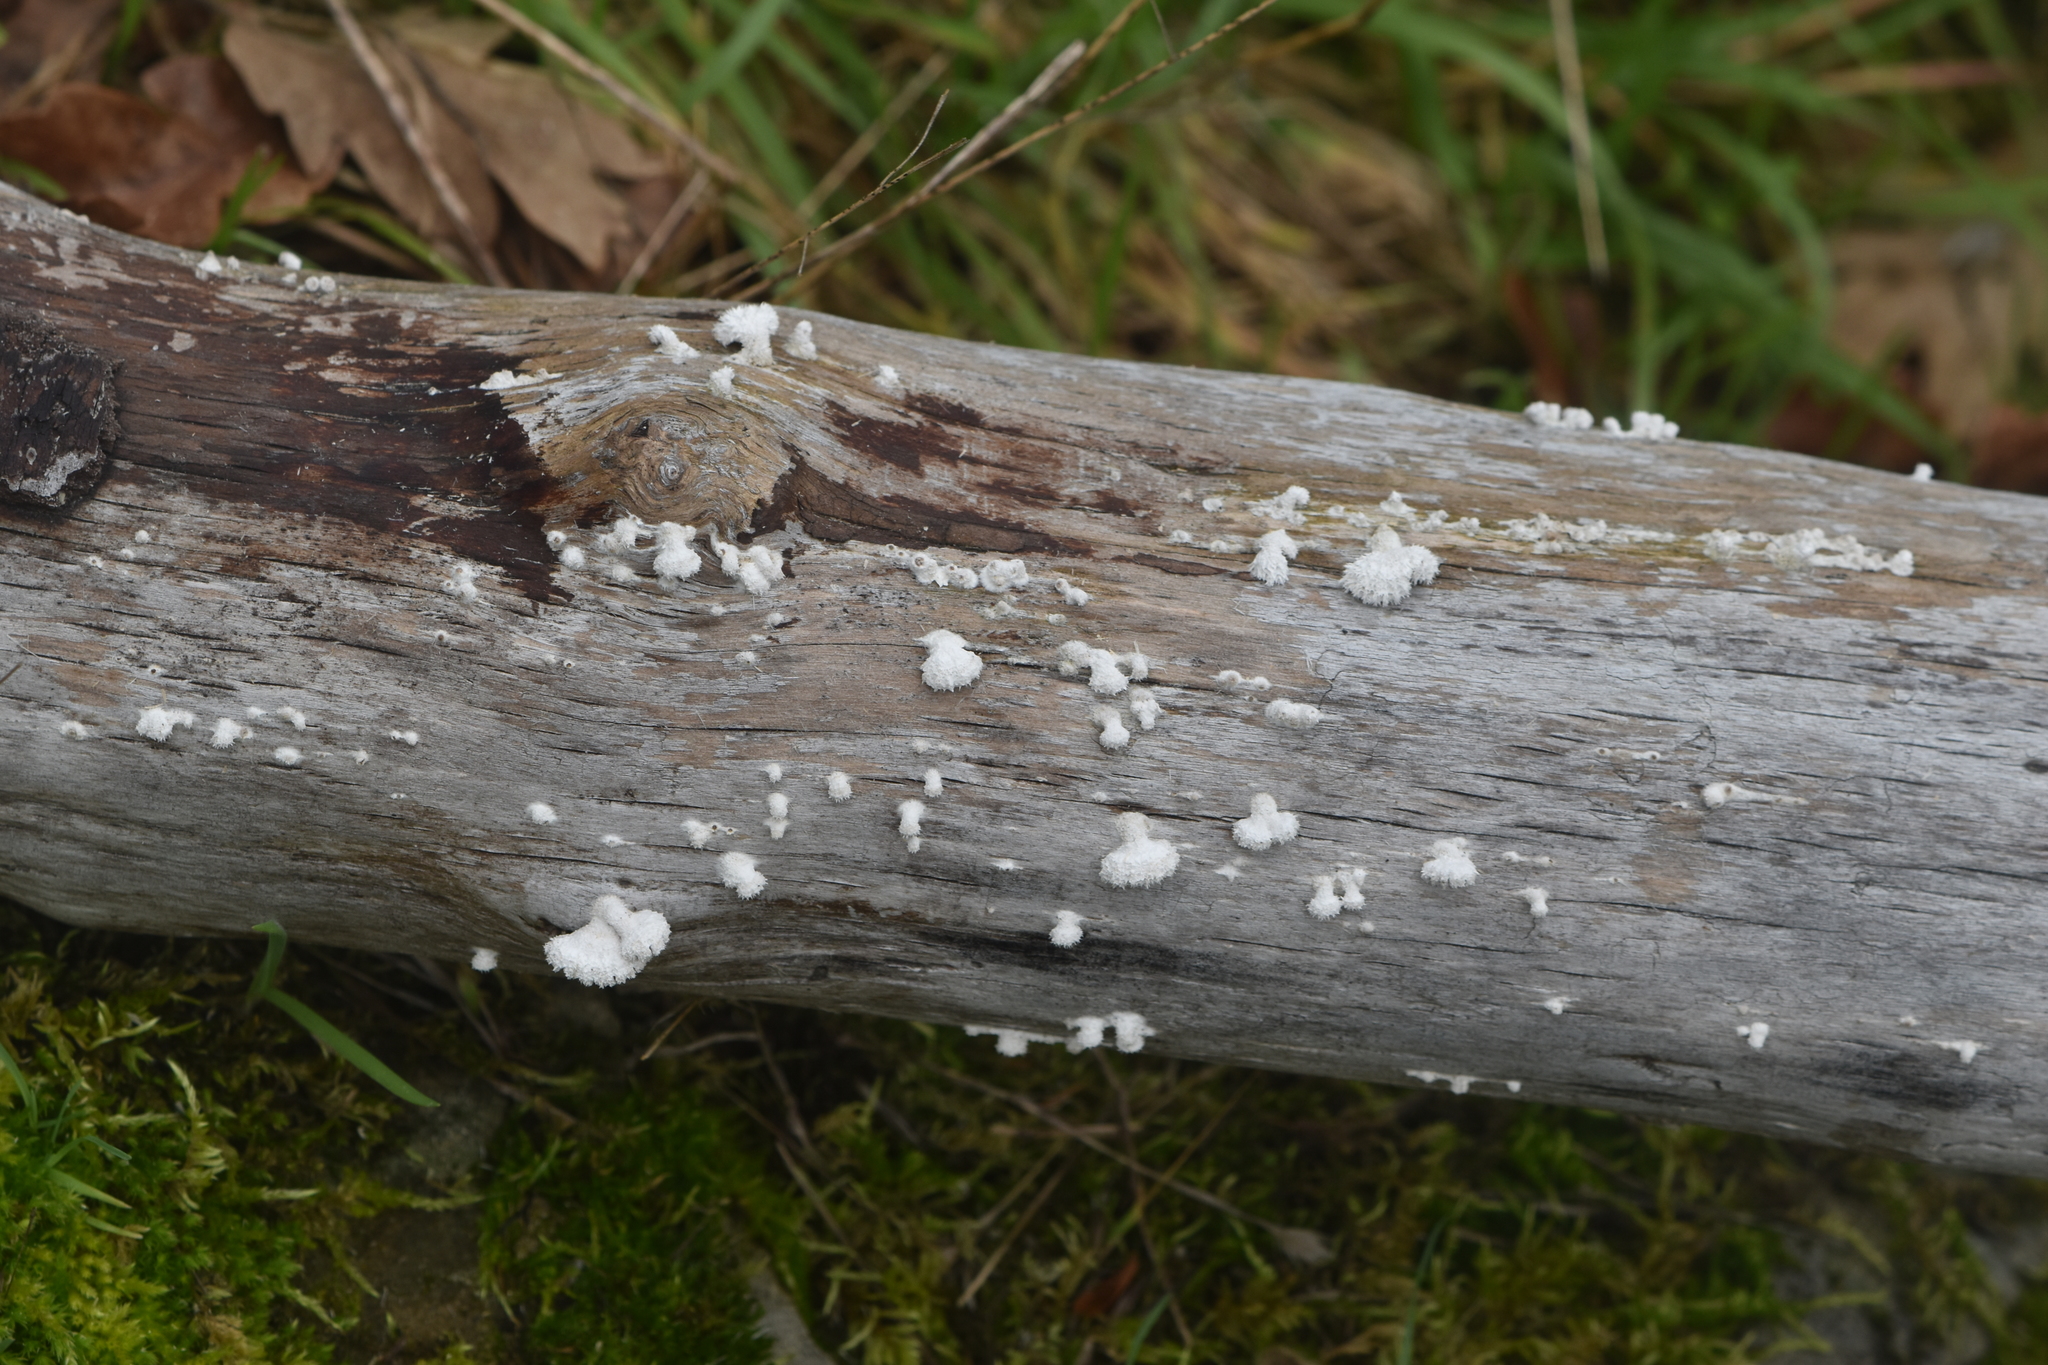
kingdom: Fungi
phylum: Basidiomycota
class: Agaricomycetes
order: Agaricales
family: Schizophyllaceae
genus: Schizophyllum
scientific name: Schizophyllum commune
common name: Common porecrust
